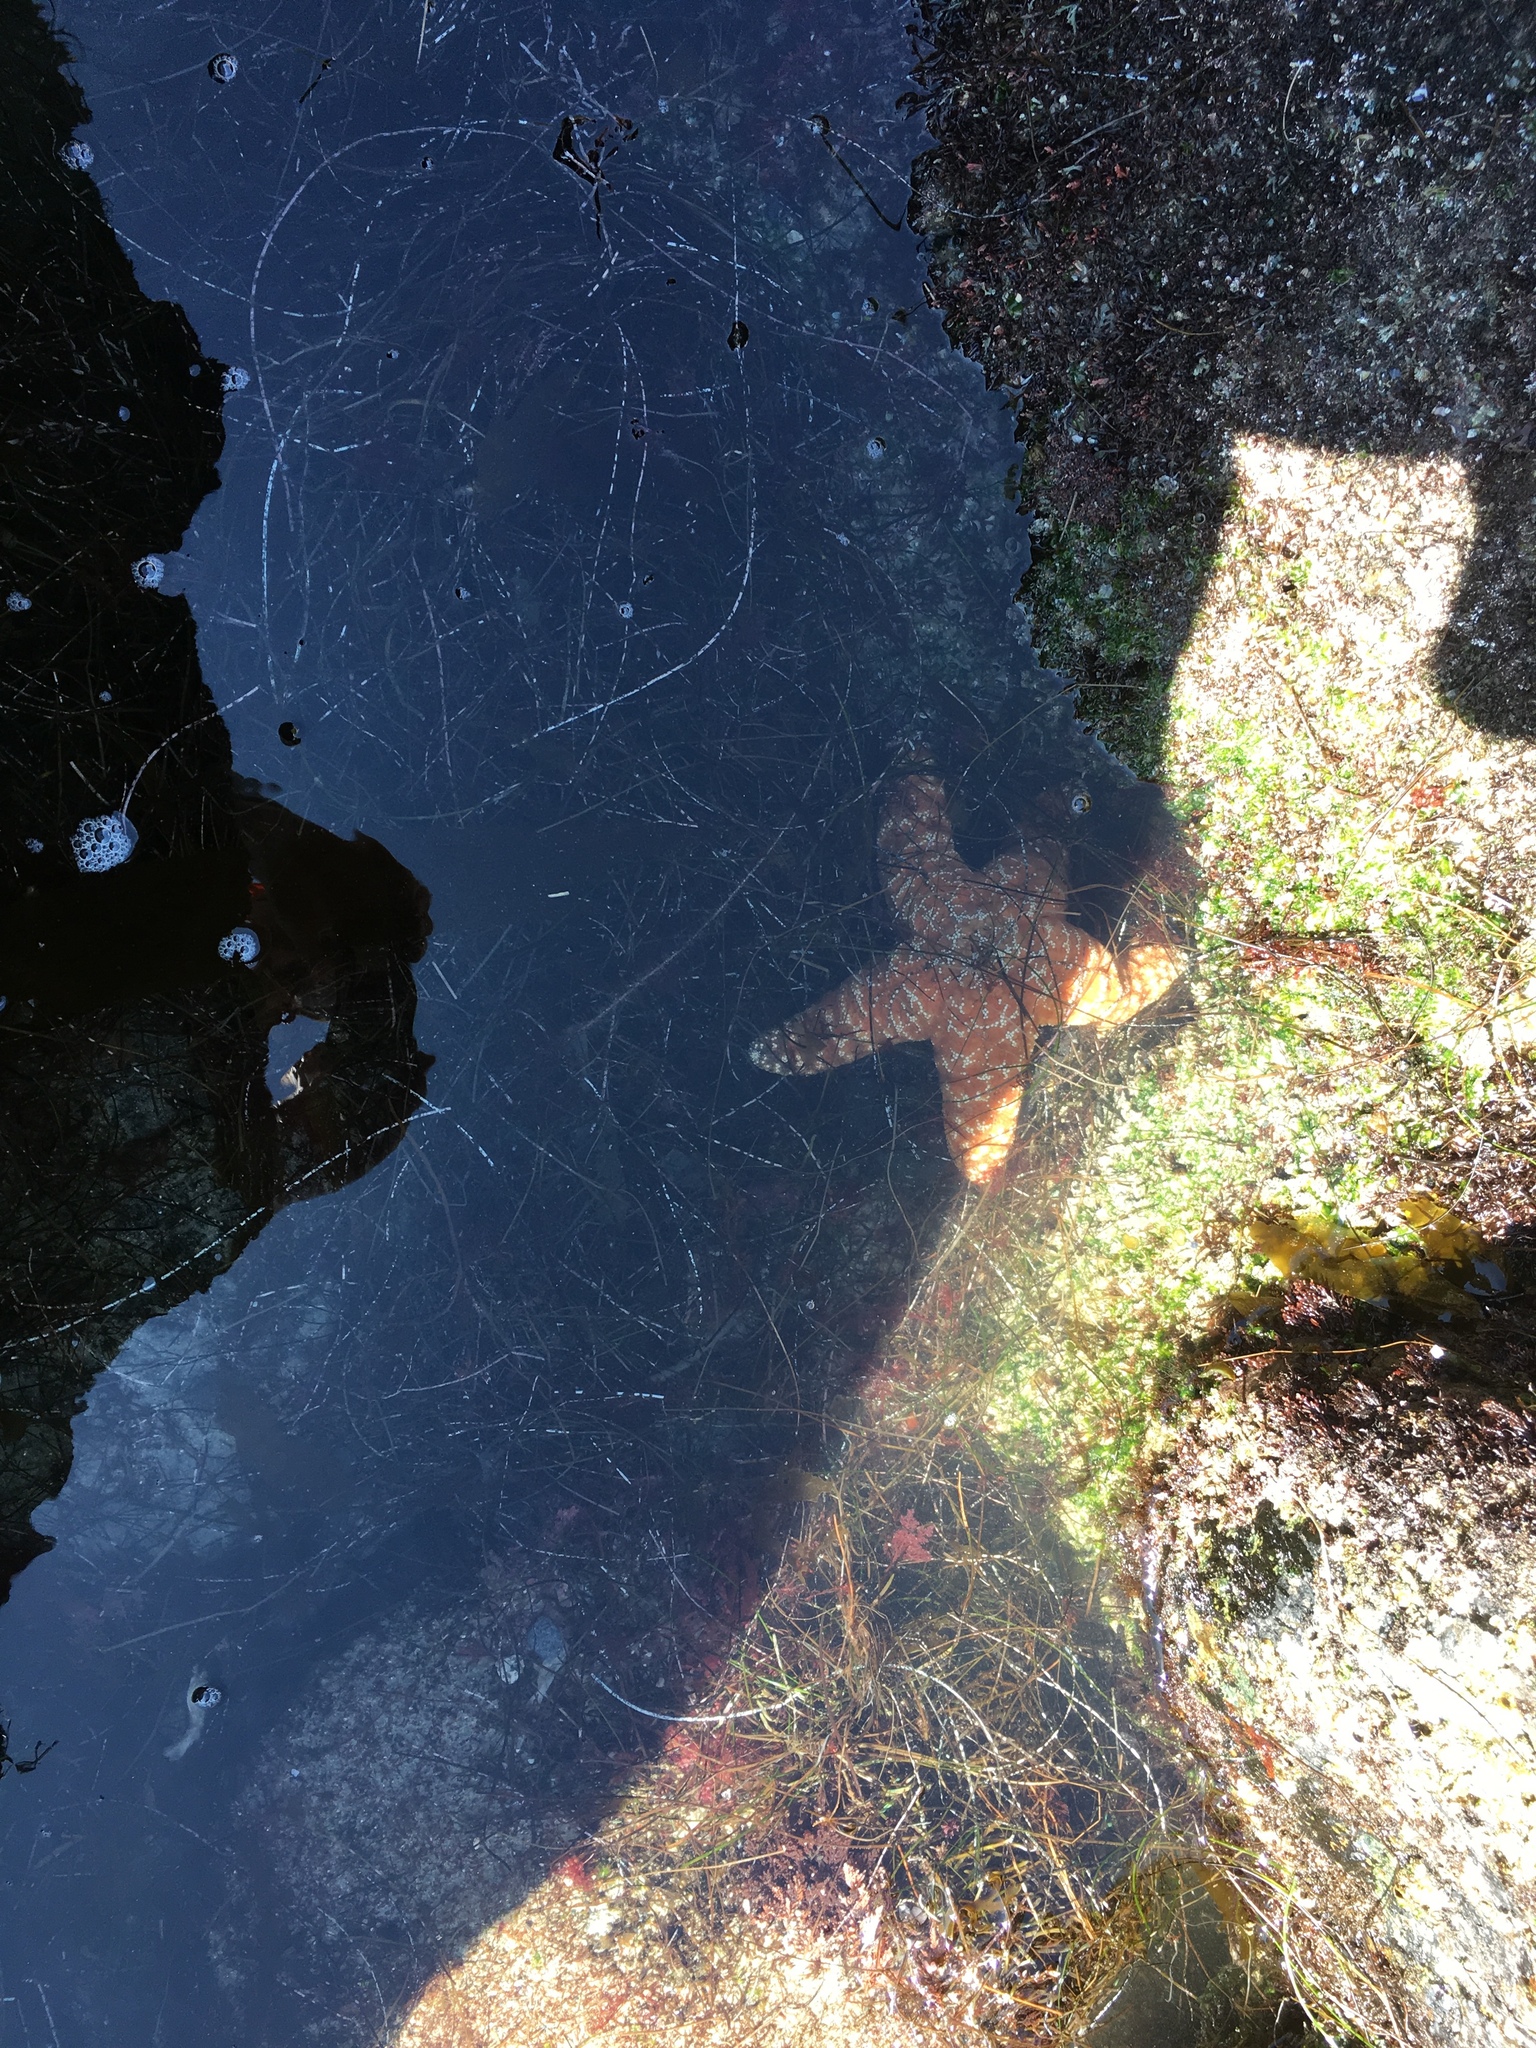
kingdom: Animalia
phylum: Echinodermata
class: Asteroidea
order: Forcipulatida
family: Asteriidae
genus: Pisaster
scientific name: Pisaster ochraceus
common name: Ochre stars
